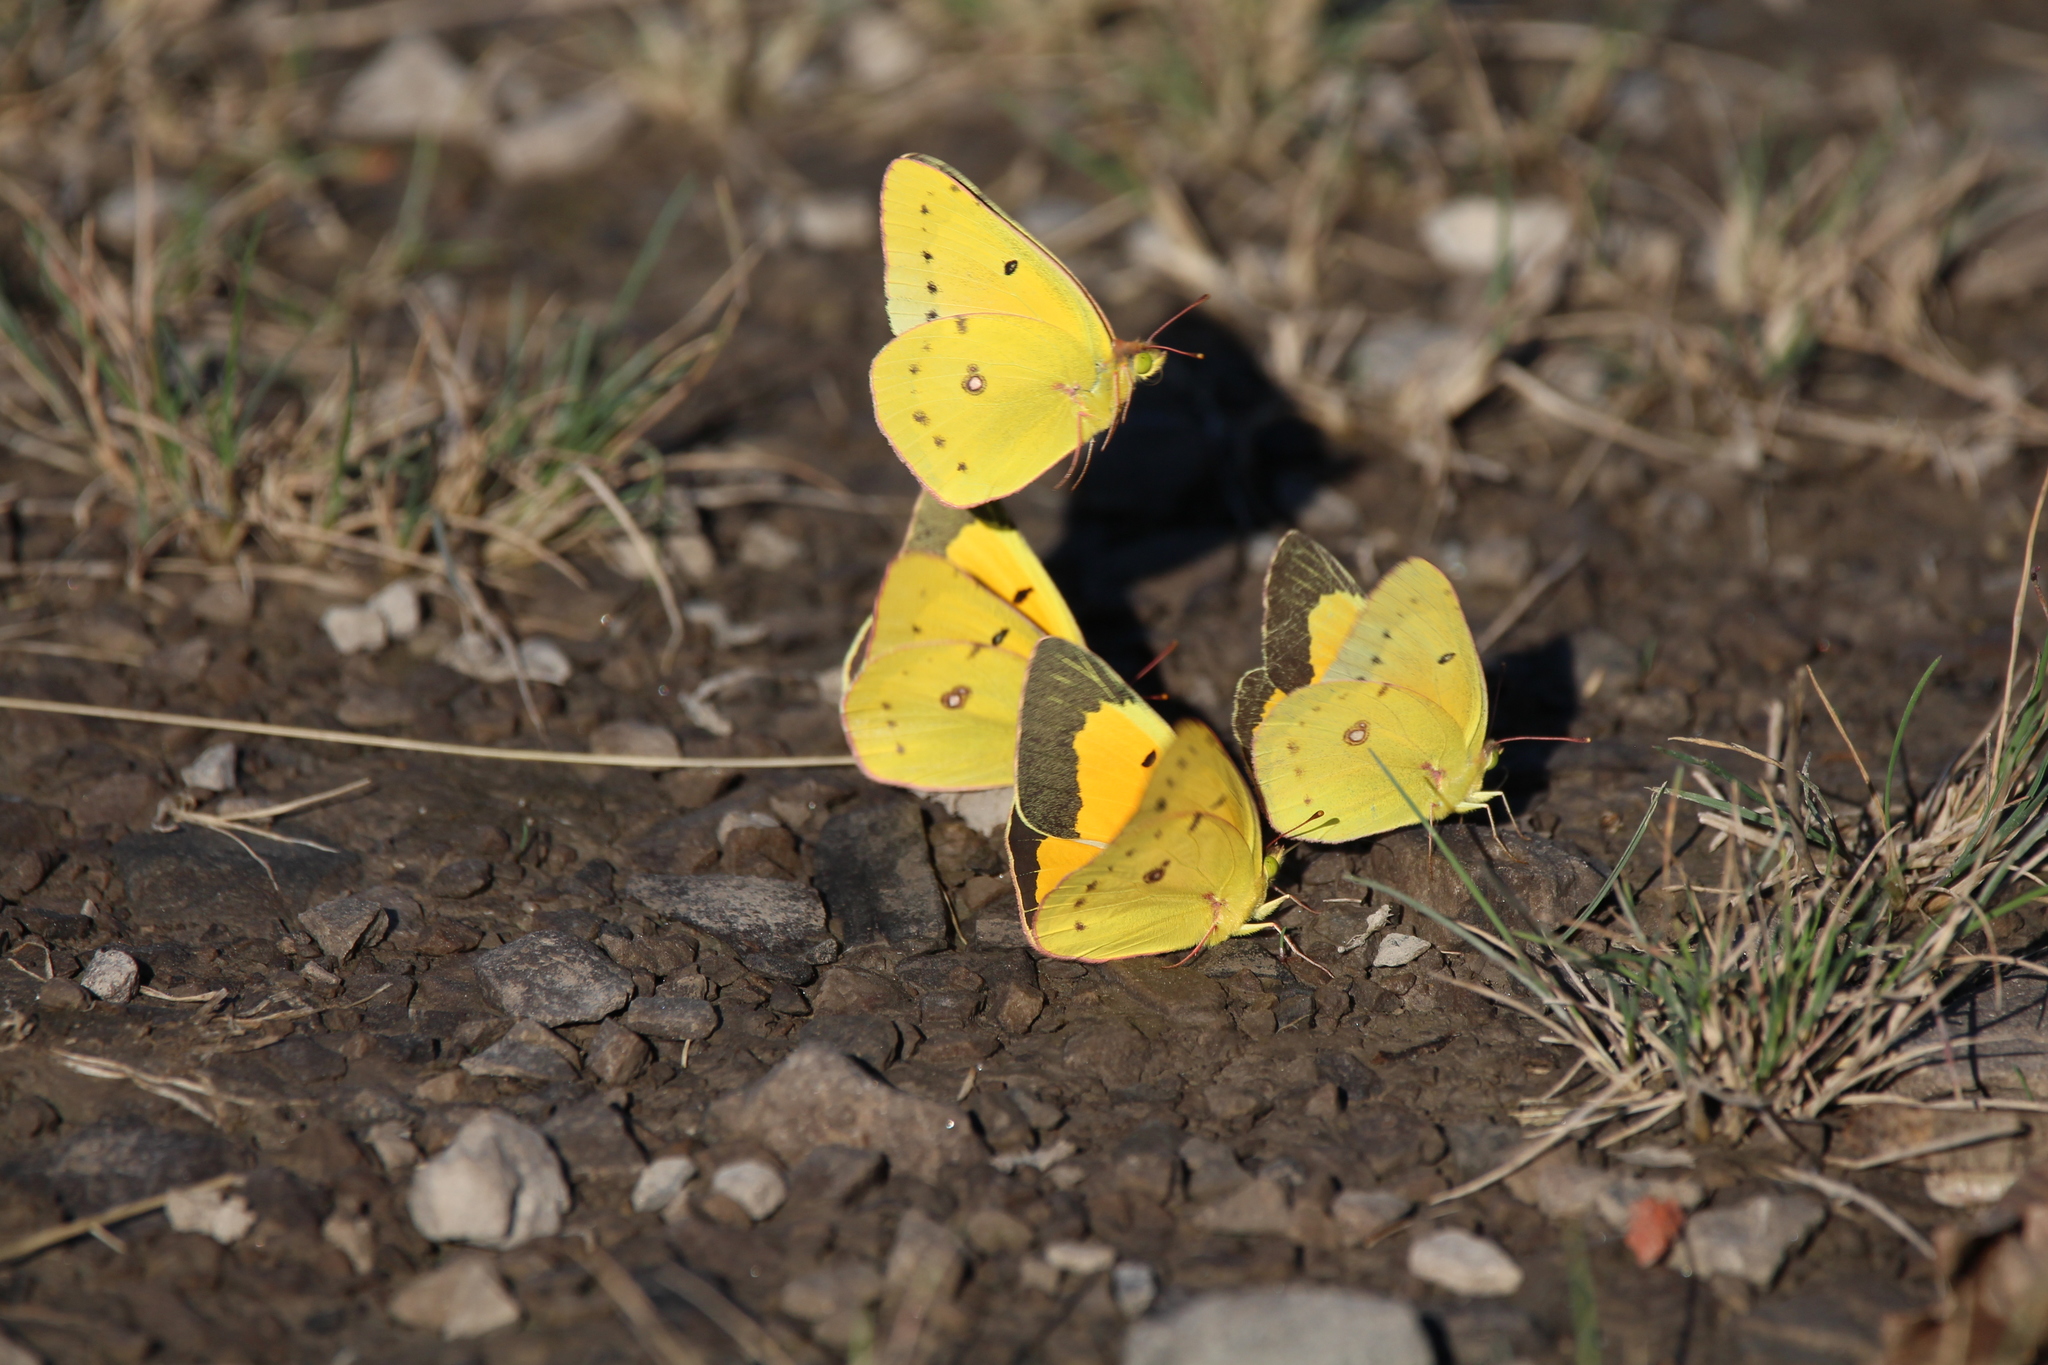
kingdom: Animalia
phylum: Arthropoda
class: Insecta
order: Lepidoptera
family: Pieridae
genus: Colias
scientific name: Colias eurytheme
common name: Alfalfa butterfly
